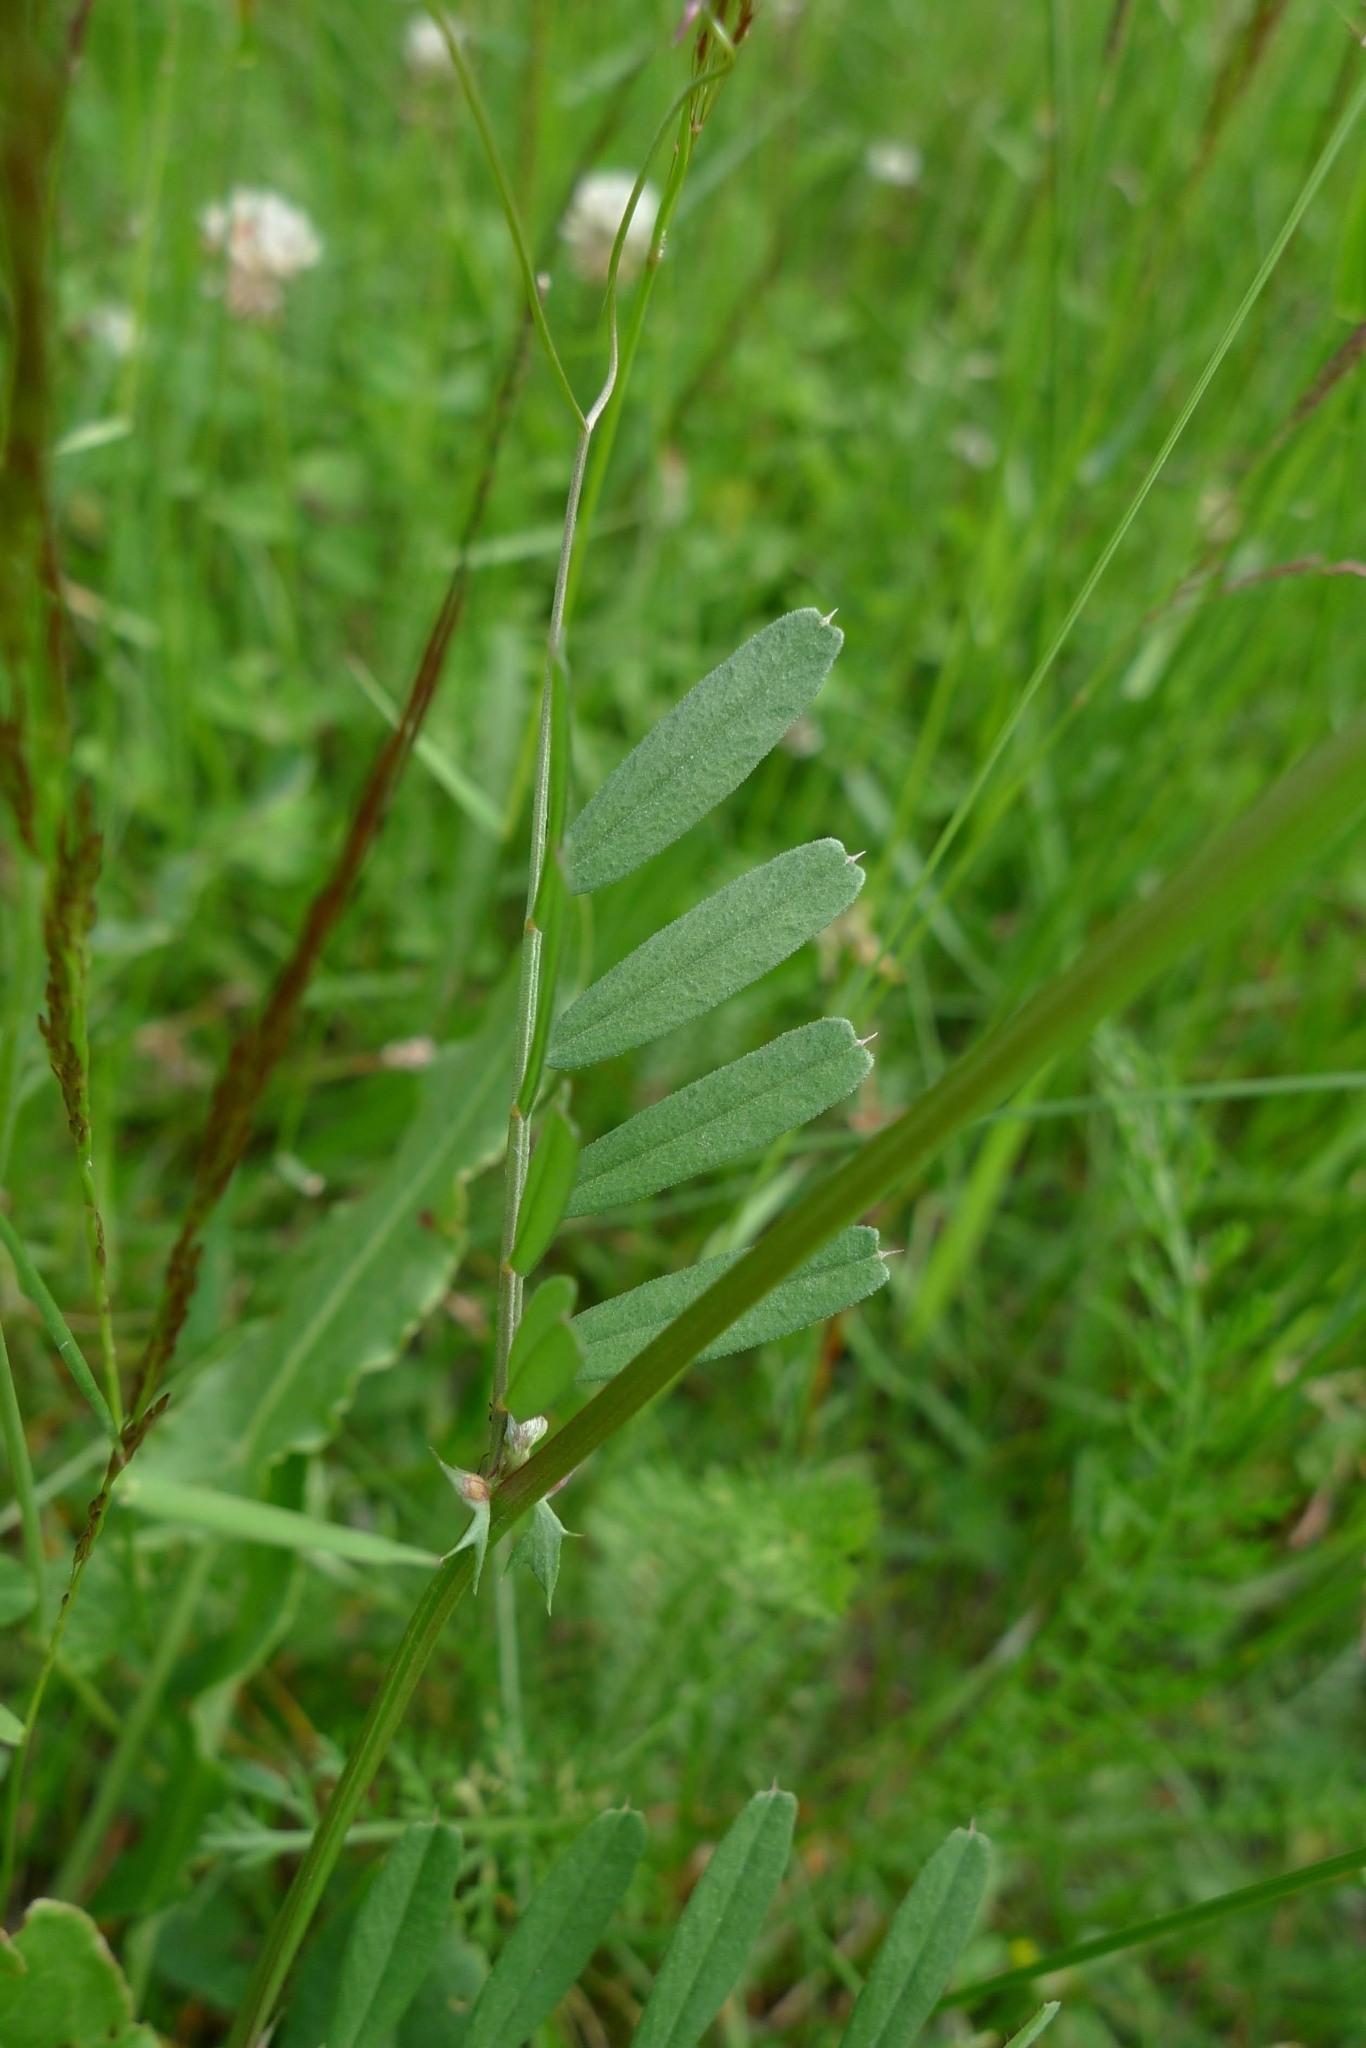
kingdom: Plantae
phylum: Tracheophyta
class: Magnoliopsida
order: Fabales
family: Fabaceae
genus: Vicia
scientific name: Vicia sativa
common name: Garden vetch
